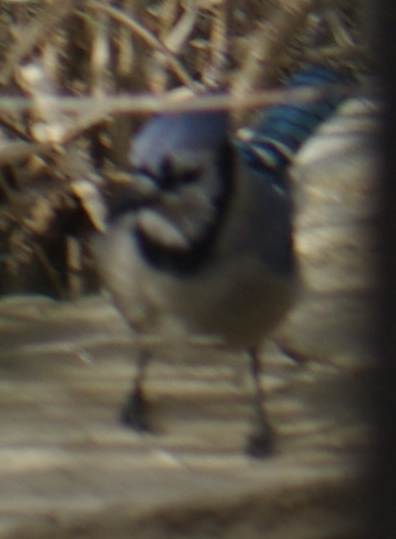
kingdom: Animalia
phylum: Chordata
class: Aves
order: Passeriformes
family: Corvidae
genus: Cyanocitta
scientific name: Cyanocitta cristata
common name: Blue jay
